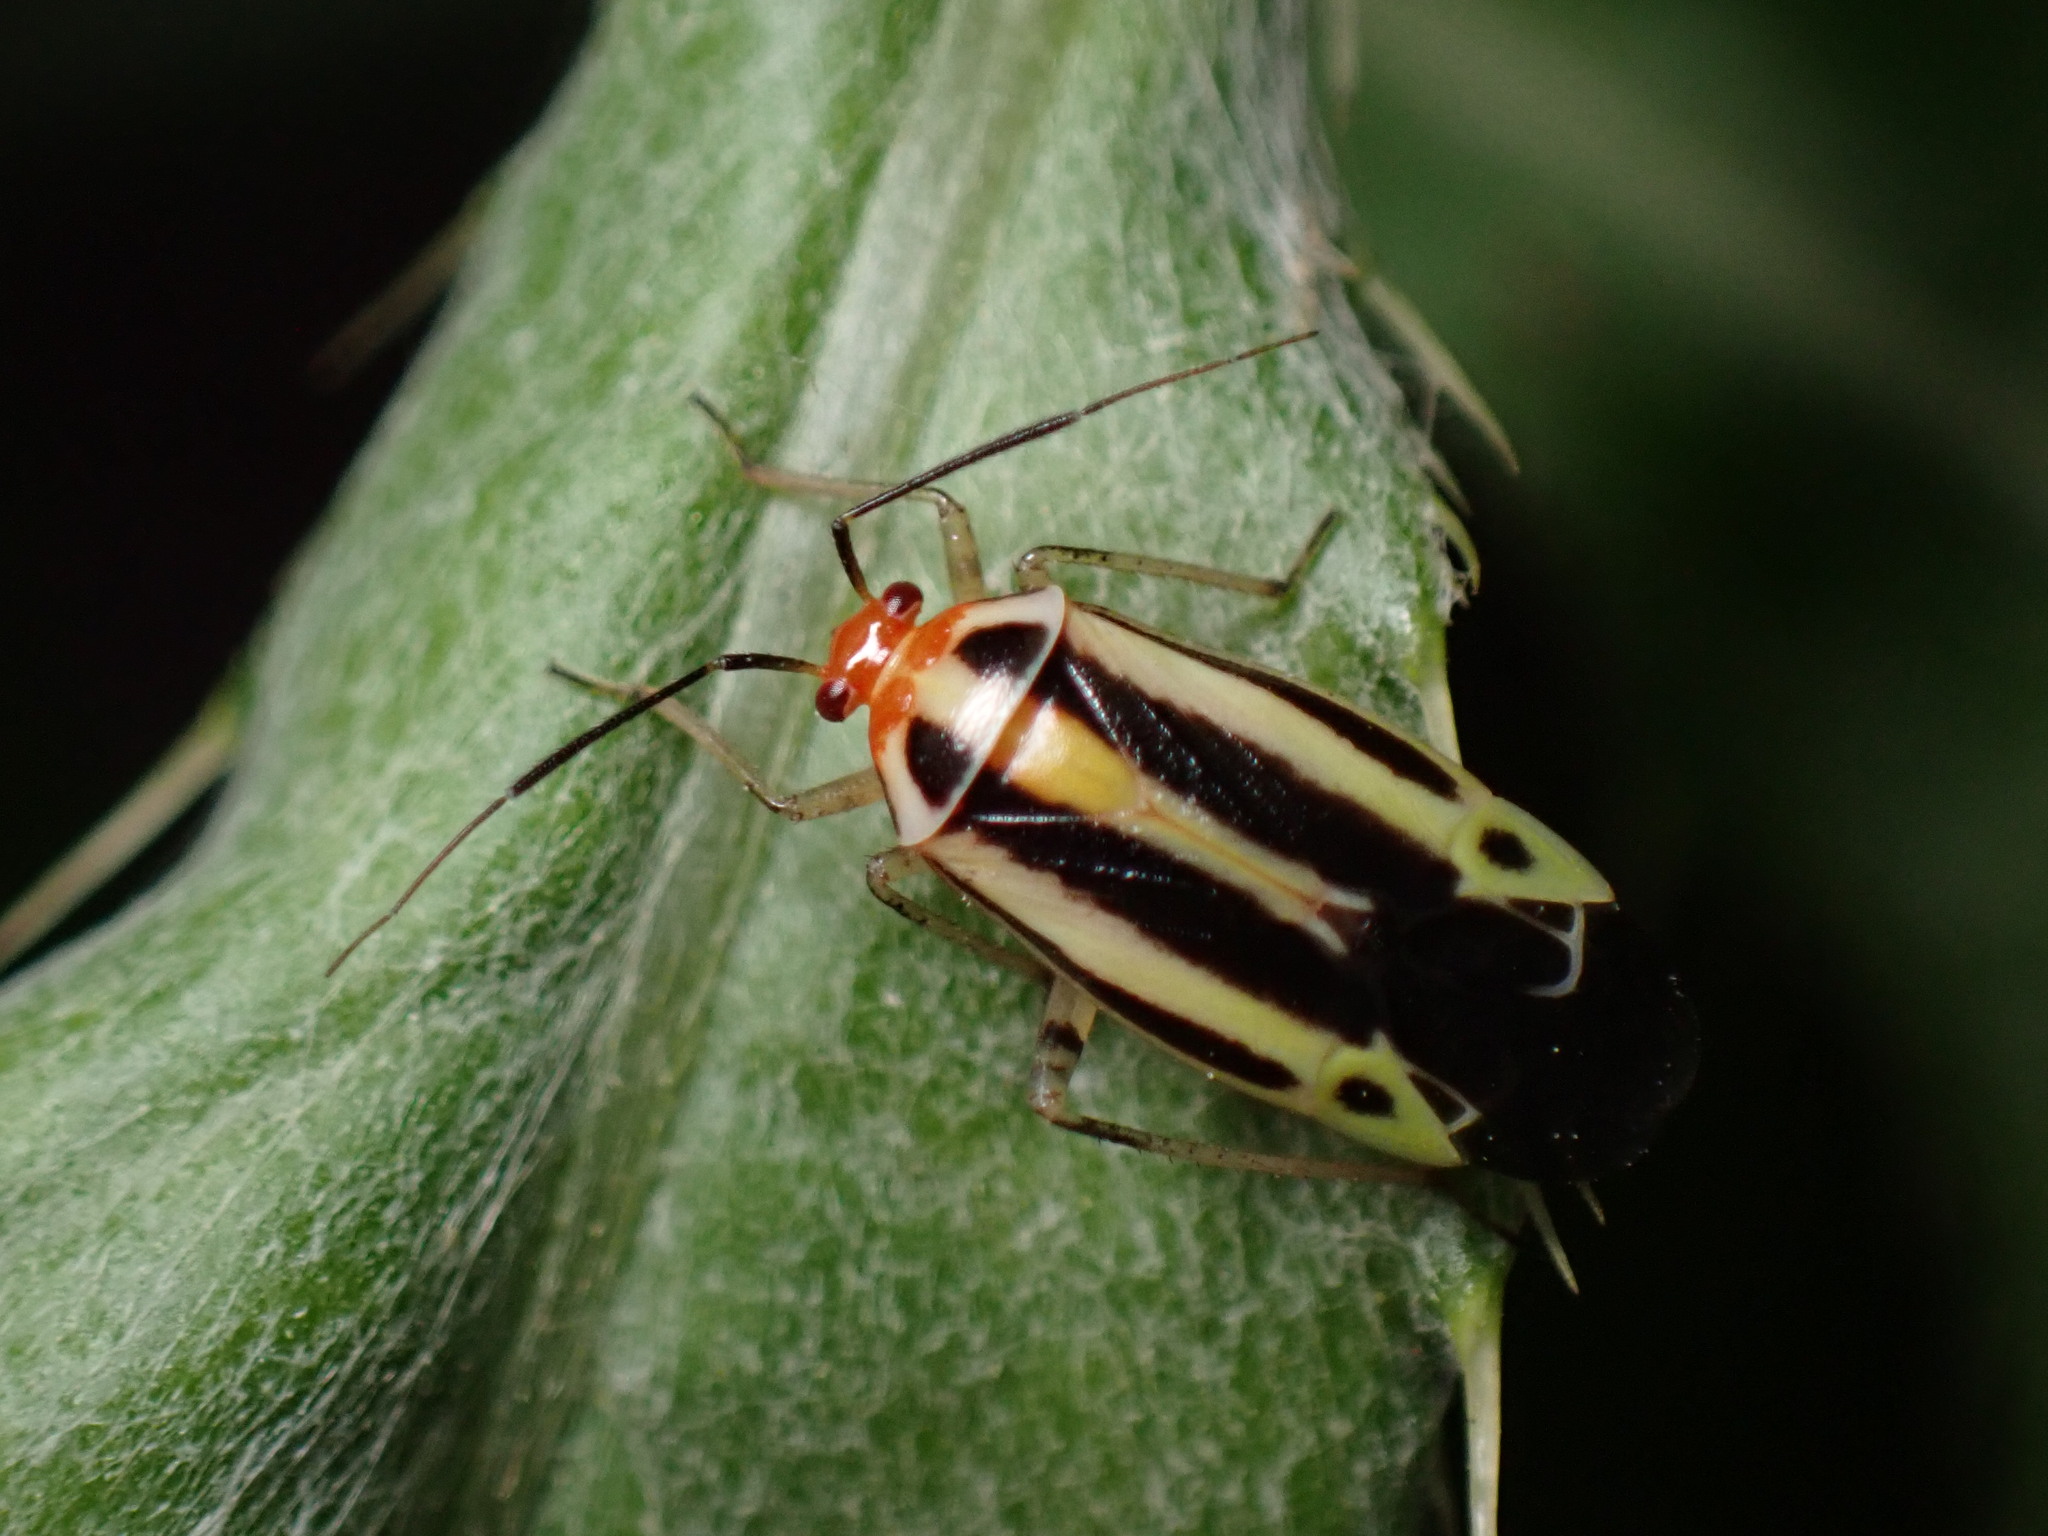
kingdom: Animalia
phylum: Arthropoda
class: Insecta
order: Hemiptera
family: Miridae
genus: Poecilocapsus
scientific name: Poecilocapsus lineatus
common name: Four-lined plant bug
